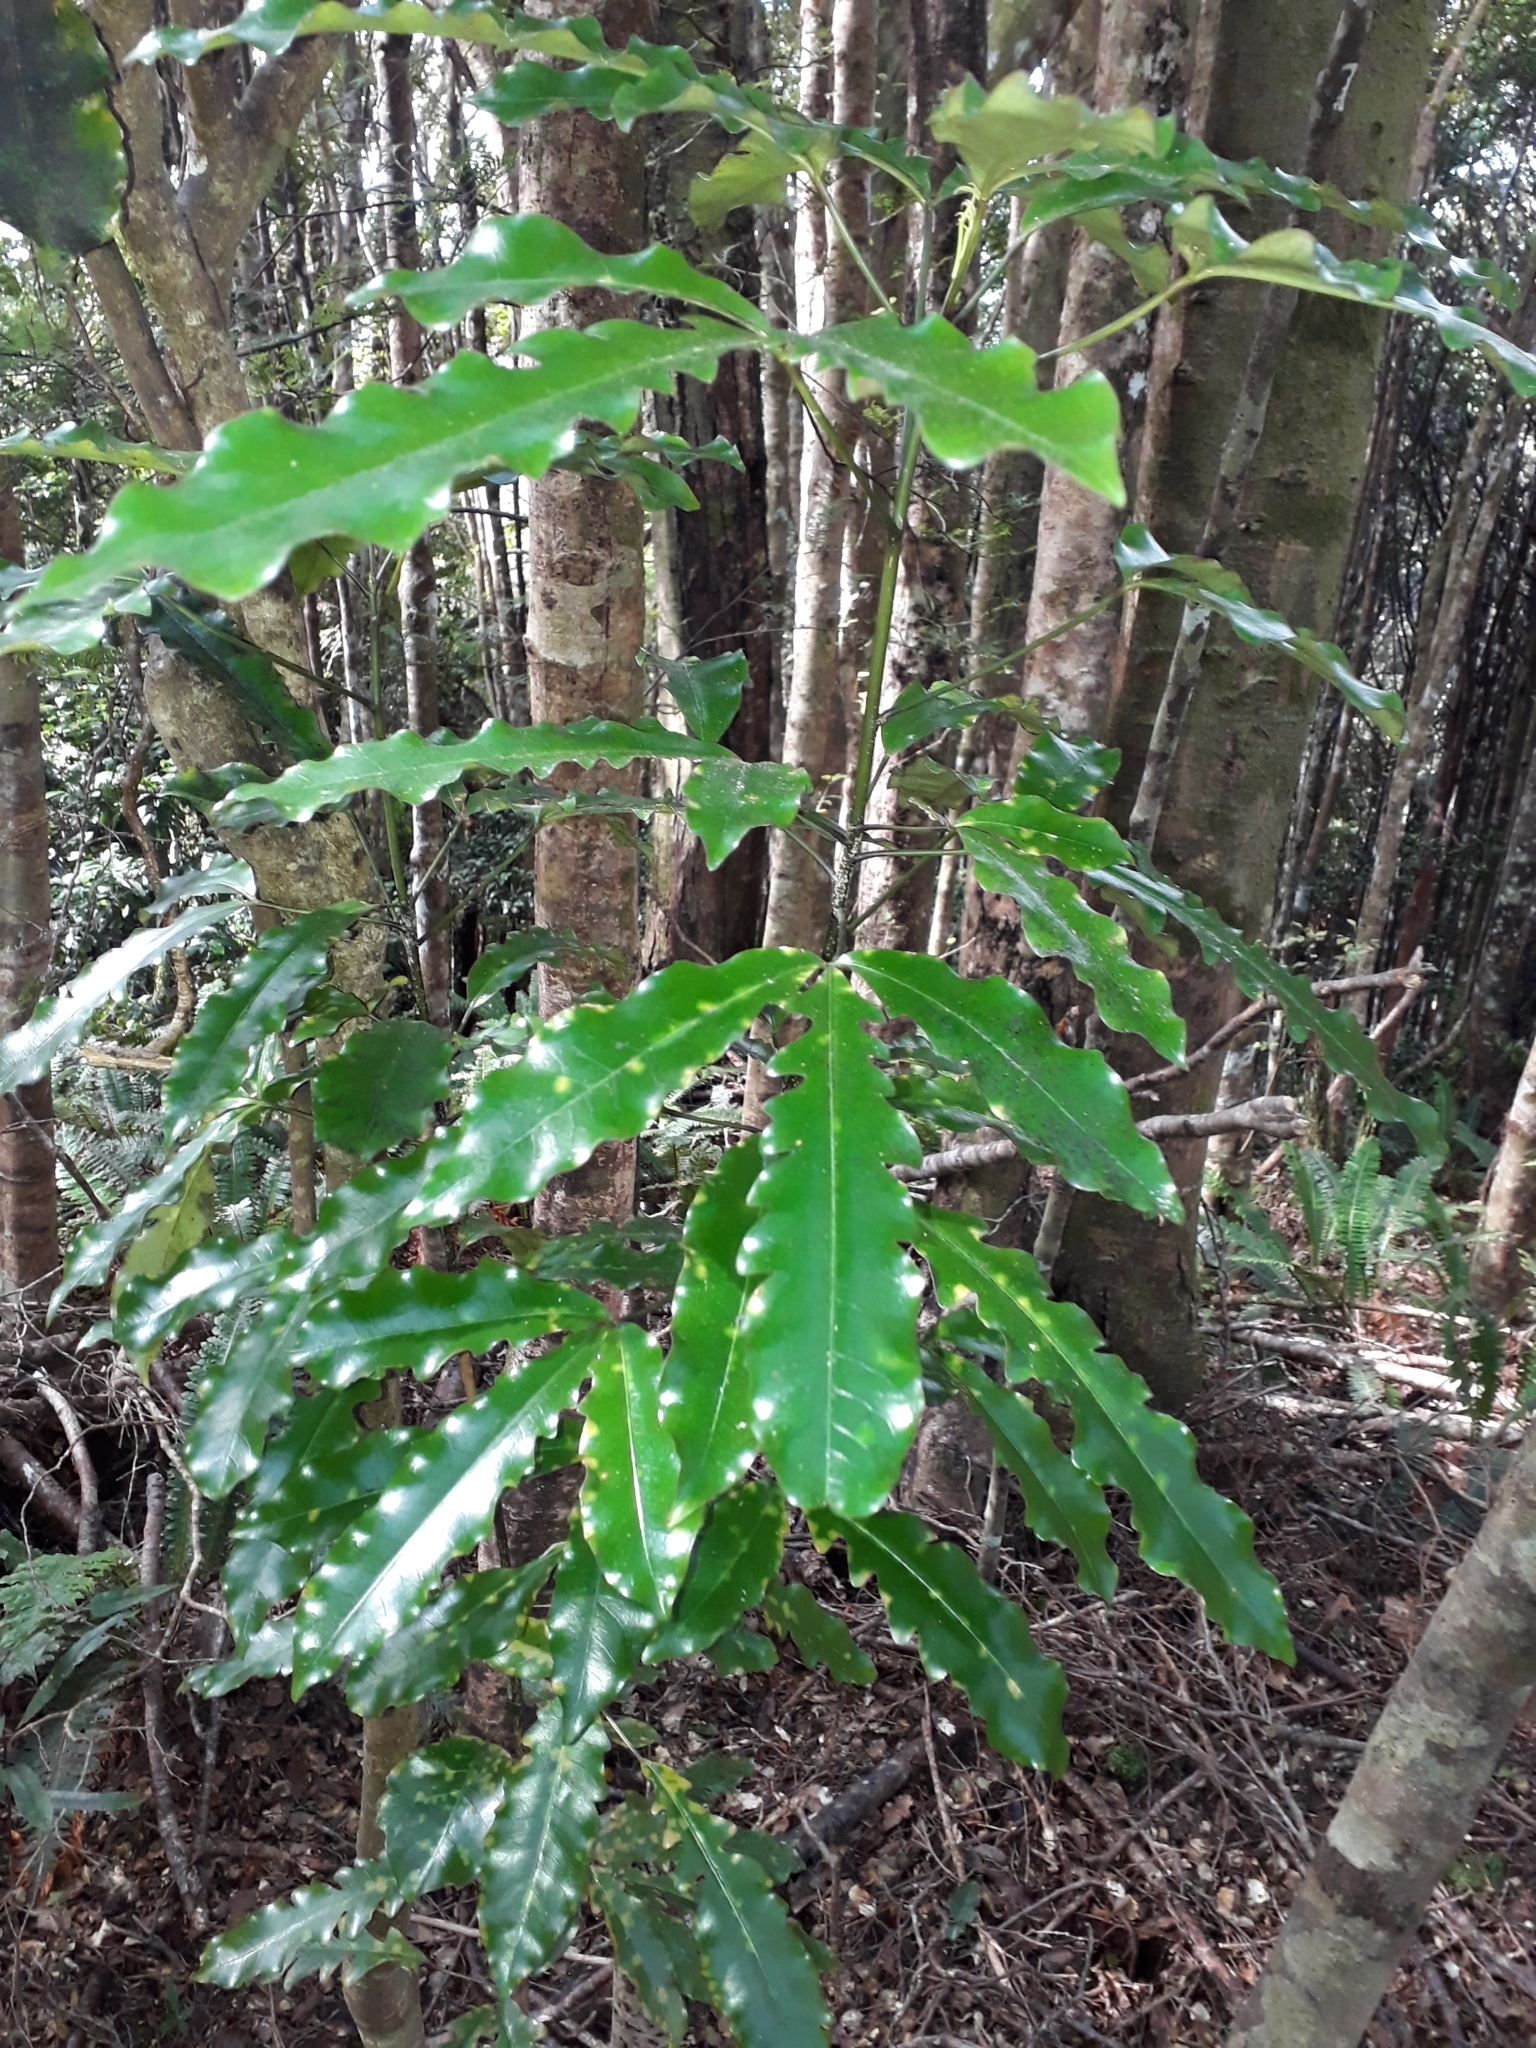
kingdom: Plantae
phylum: Tracheophyta
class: Magnoliopsida
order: Apiales
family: Araliaceae
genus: Raukaua
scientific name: Raukaua edgerleyi
